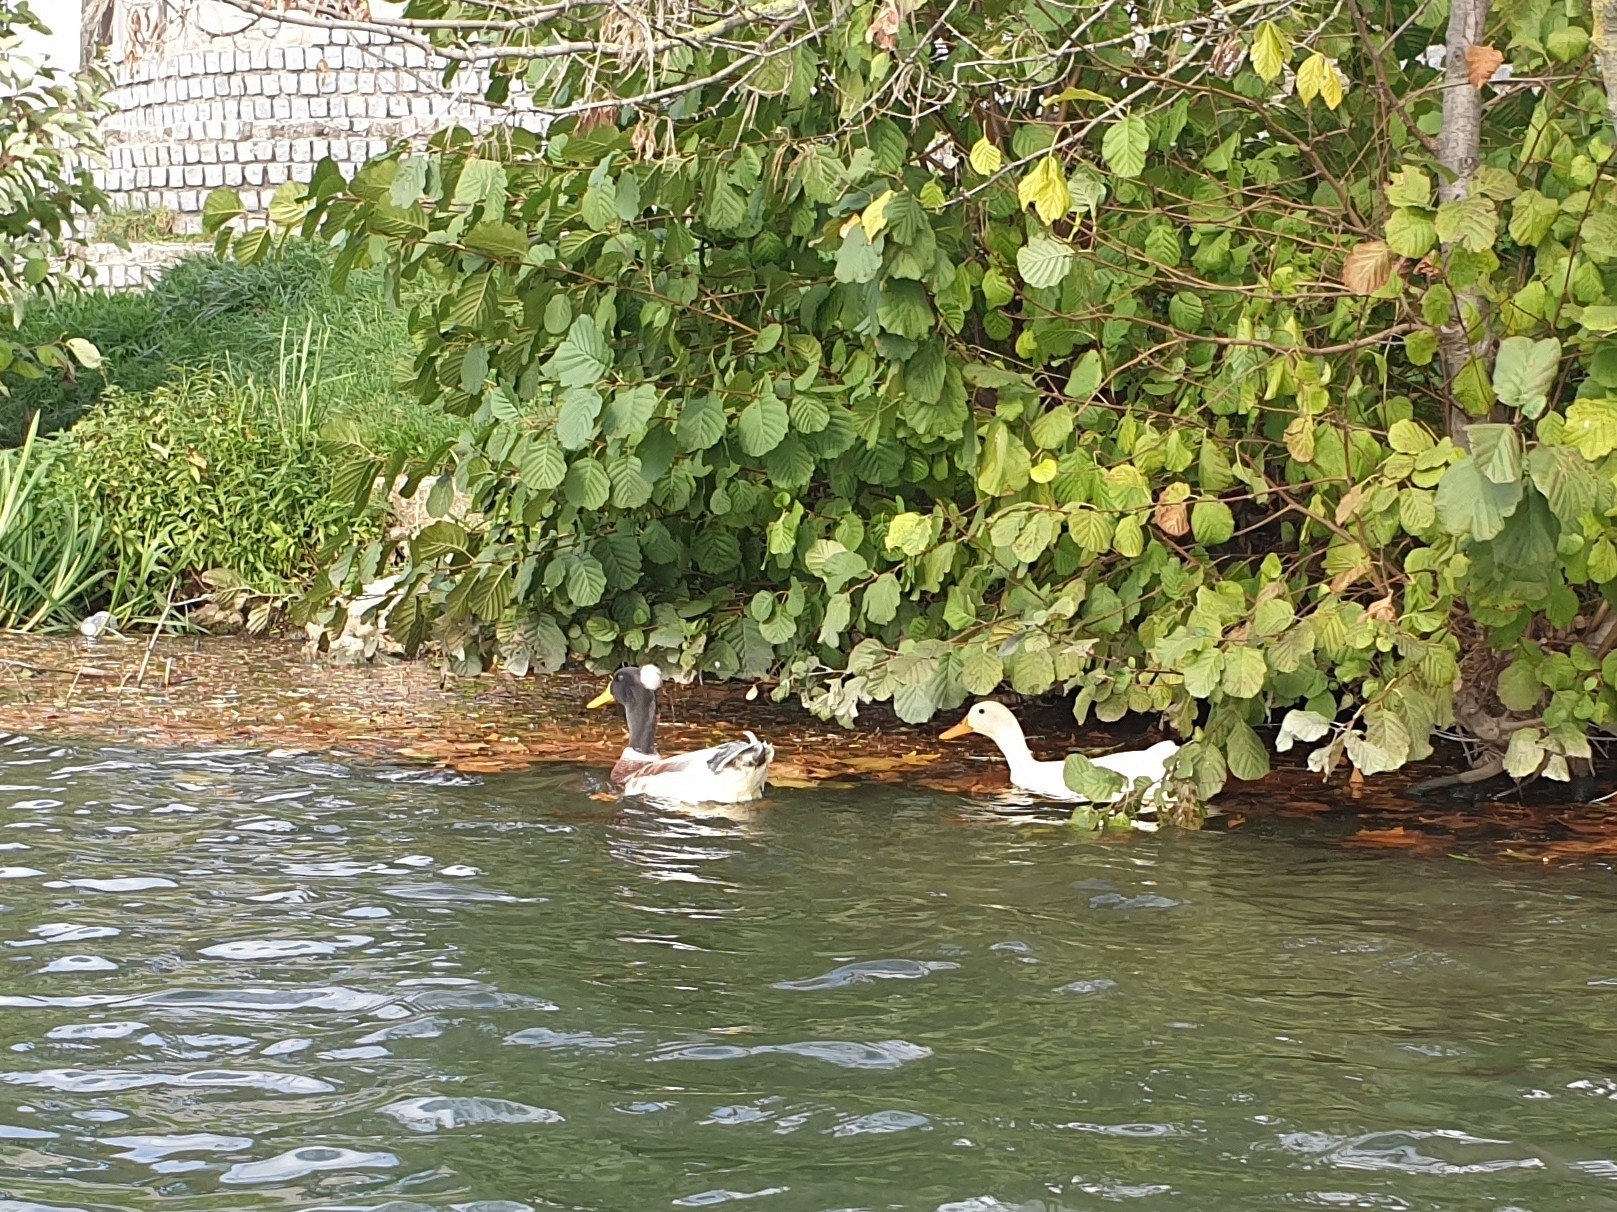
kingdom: Animalia
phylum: Chordata
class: Aves
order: Anseriformes
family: Anatidae
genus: Anas
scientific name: Anas platyrhynchos
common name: Mallard
